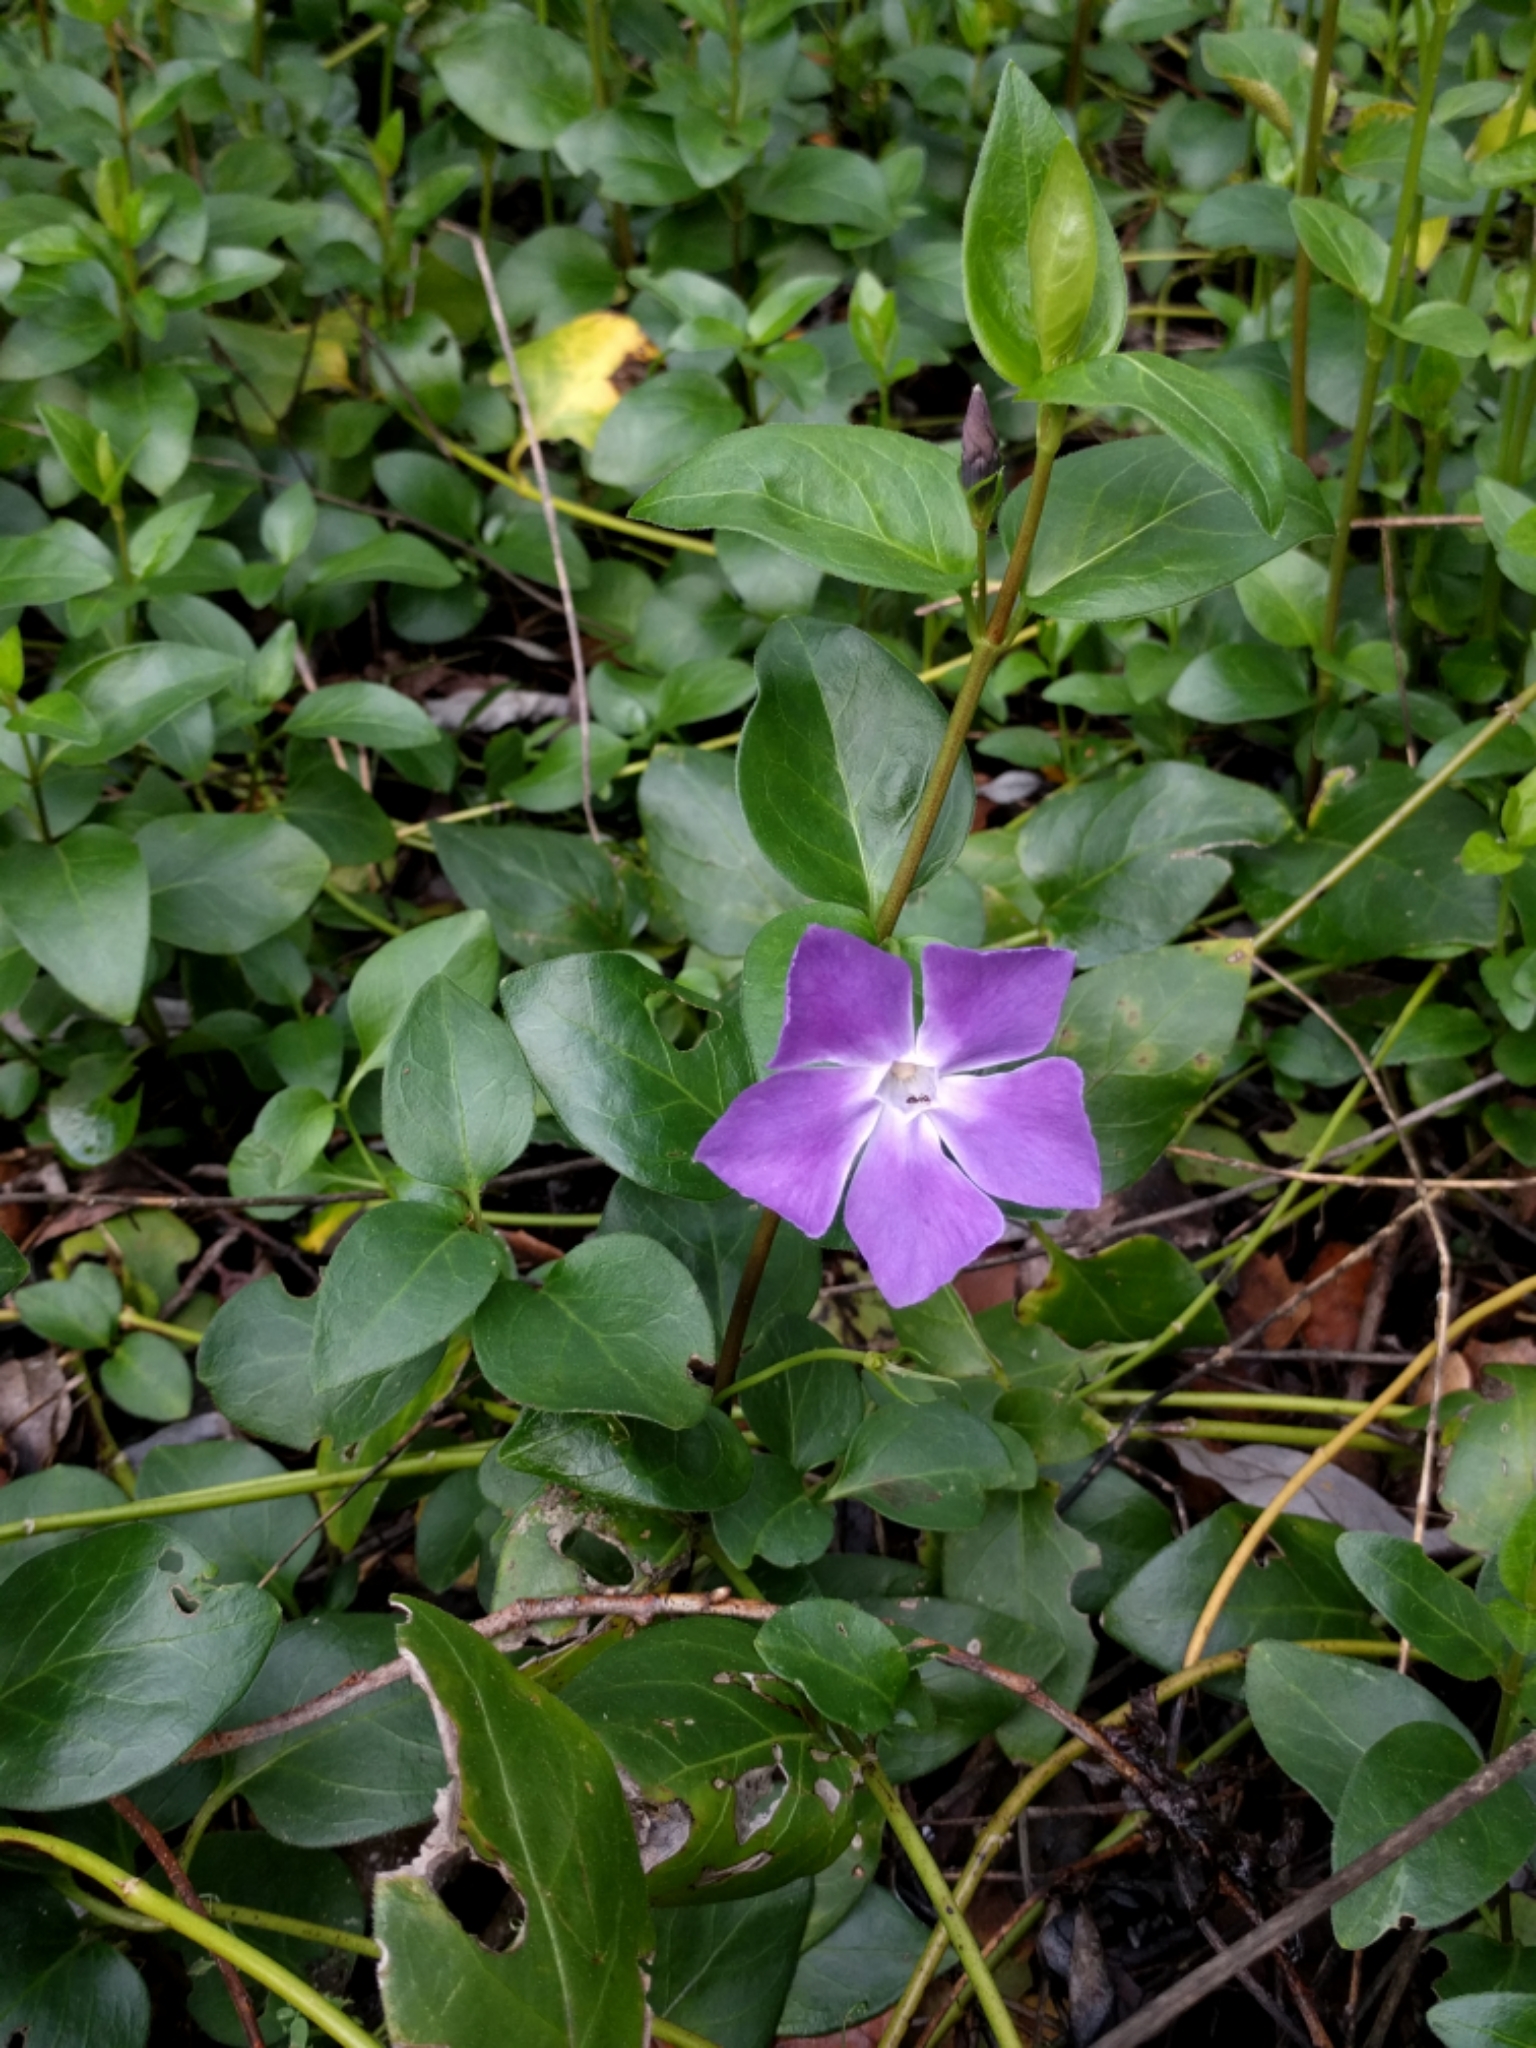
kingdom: Plantae
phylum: Tracheophyta
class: Magnoliopsida
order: Gentianales
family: Apocynaceae
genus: Vinca
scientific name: Vinca major
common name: Greater periwinkle
